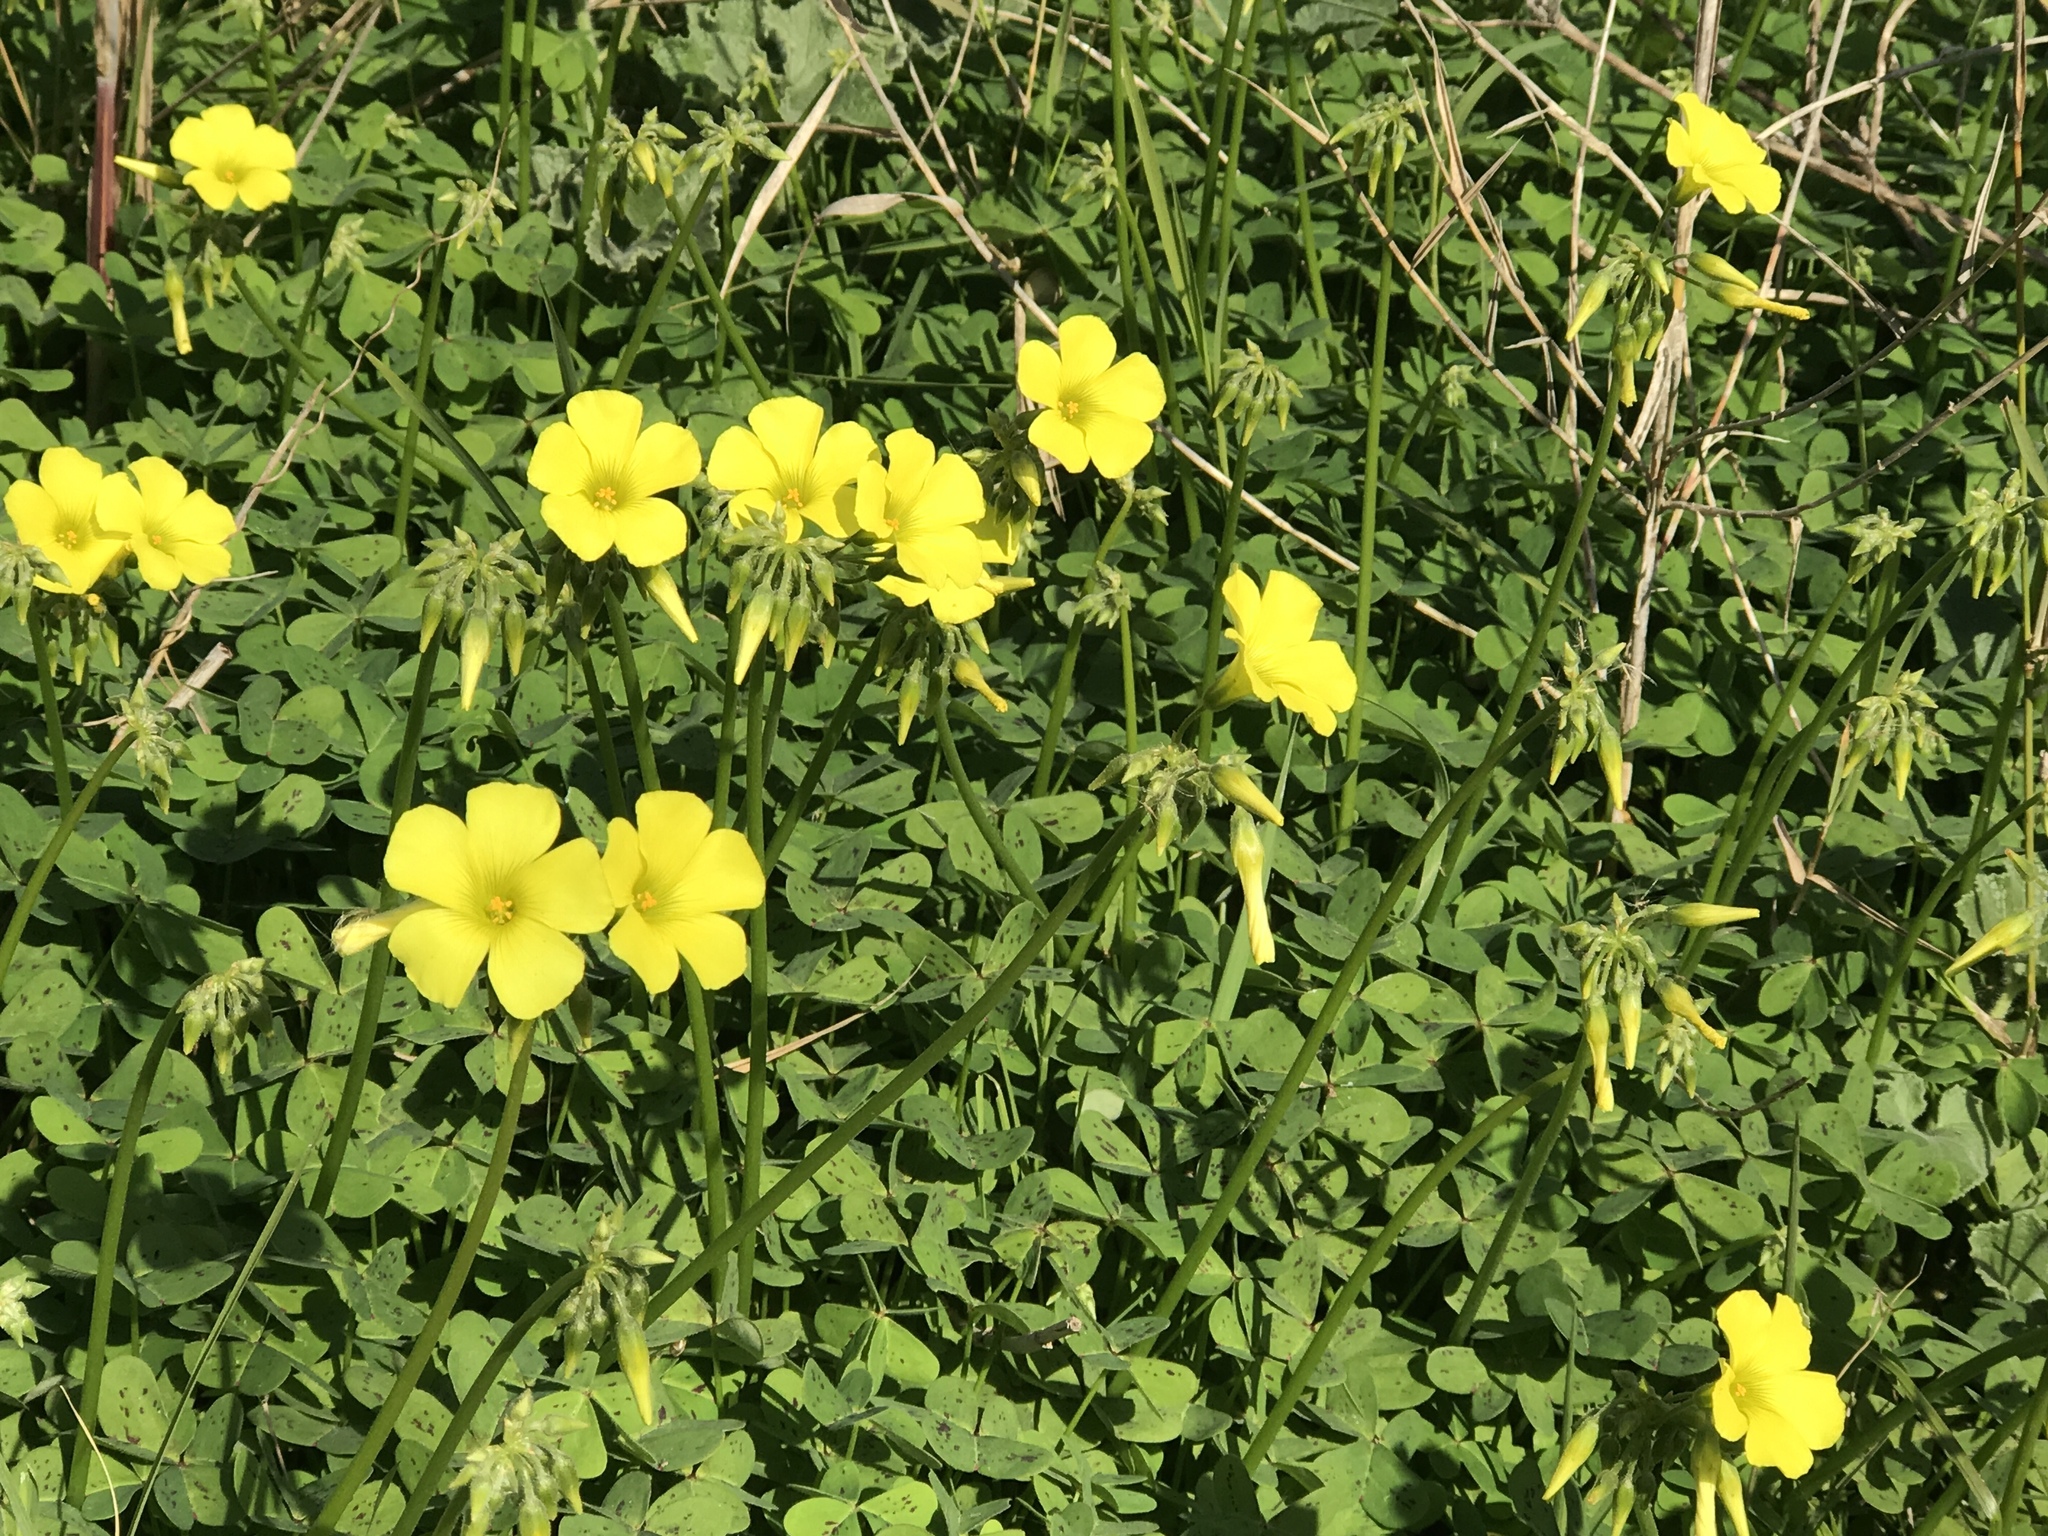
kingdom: Plantae
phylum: Tracheophyta
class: Magnoliopsida
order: Oxalidales
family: Oxalidaceae
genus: Oxalis
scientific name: Oxalis pes-caprae
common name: Bermuda-buttercup
